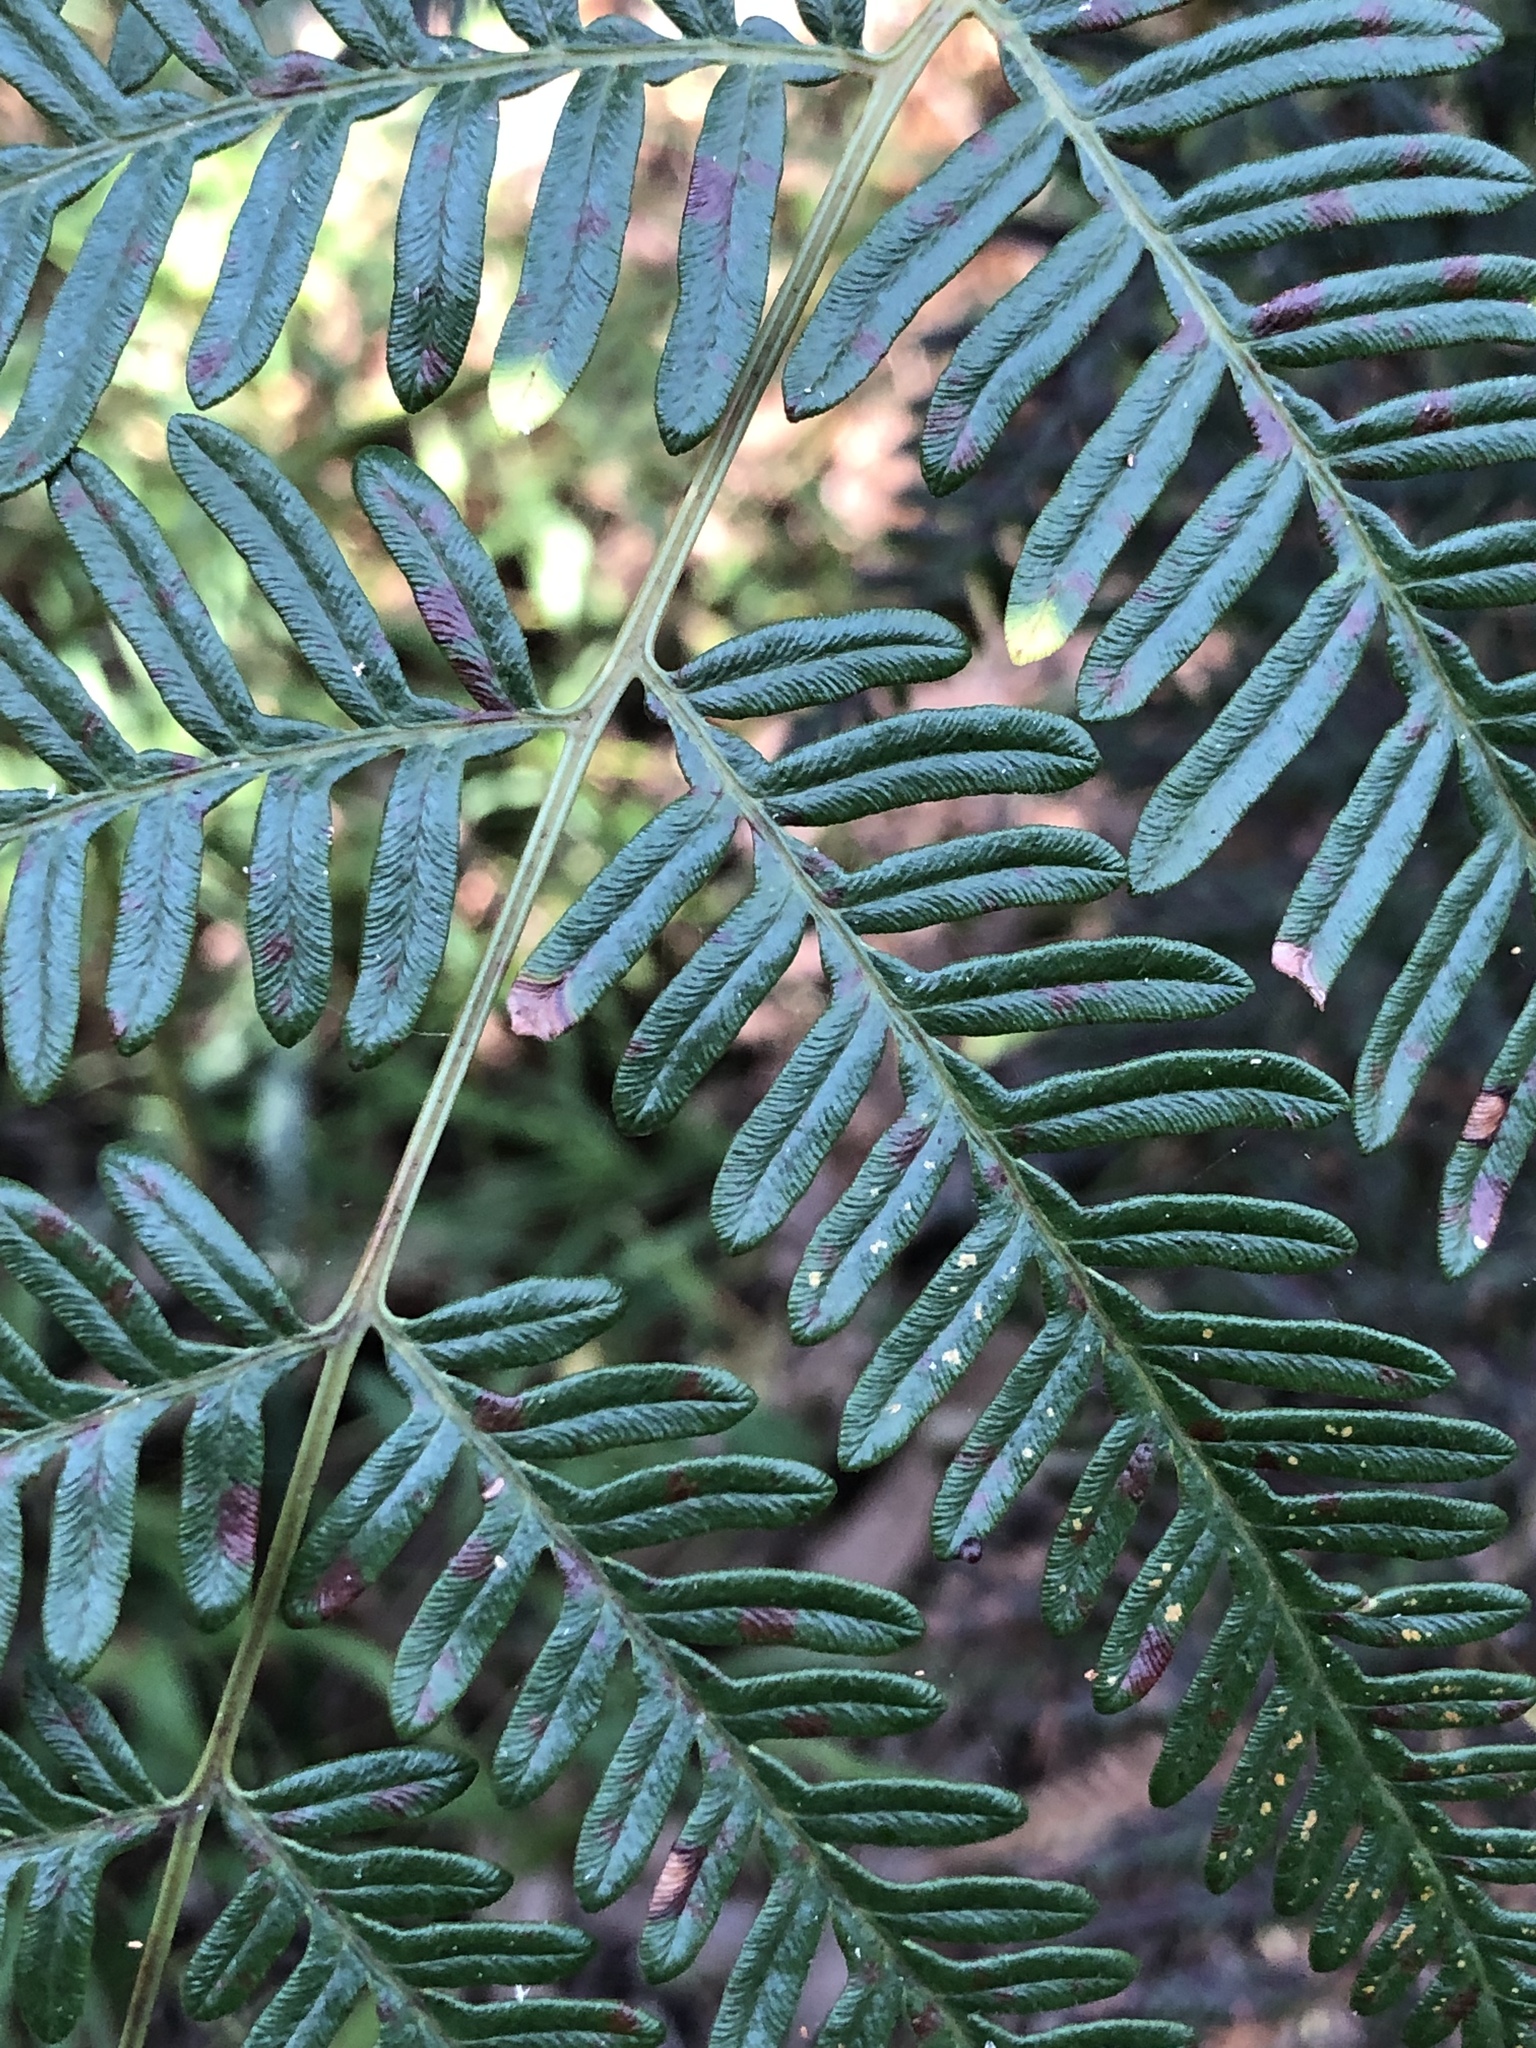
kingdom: Plantae
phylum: Tracheophyta
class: Polypodiopsida
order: Polypodiales
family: Dennstaedtiaceae
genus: Pteridium
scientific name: Pteridium esculentum
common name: Bracken fern
